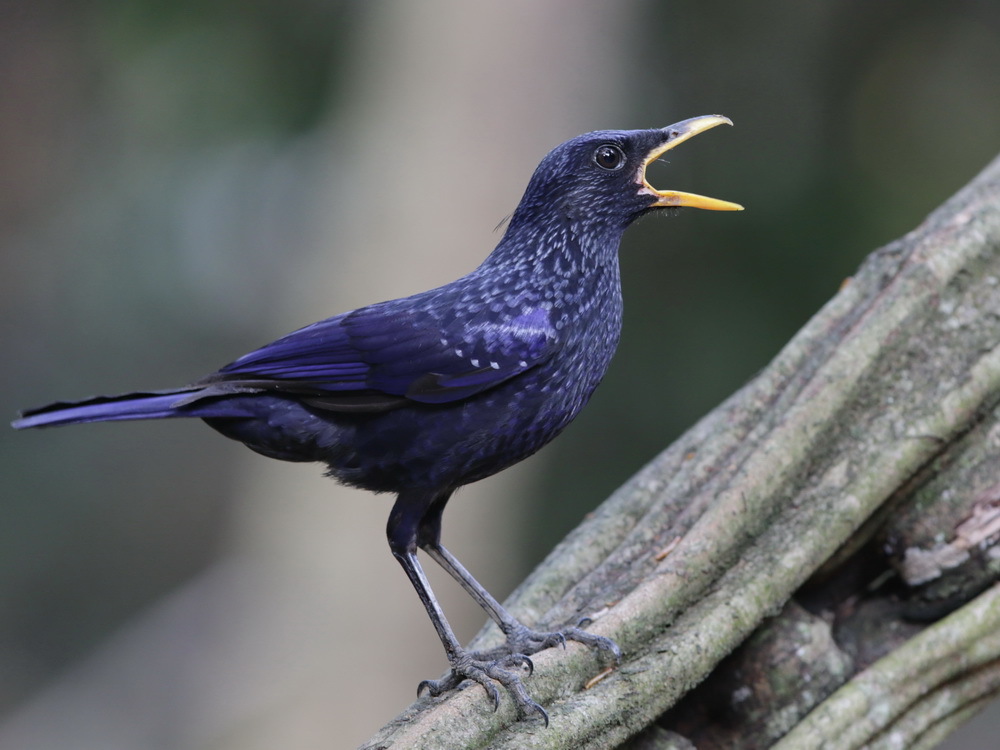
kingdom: Animalia
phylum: Chordata
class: Aves
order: Passeriformes
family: Muscicapidae
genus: Myophonus
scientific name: Myophonus caeruleus
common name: Blue whistling-thrush
